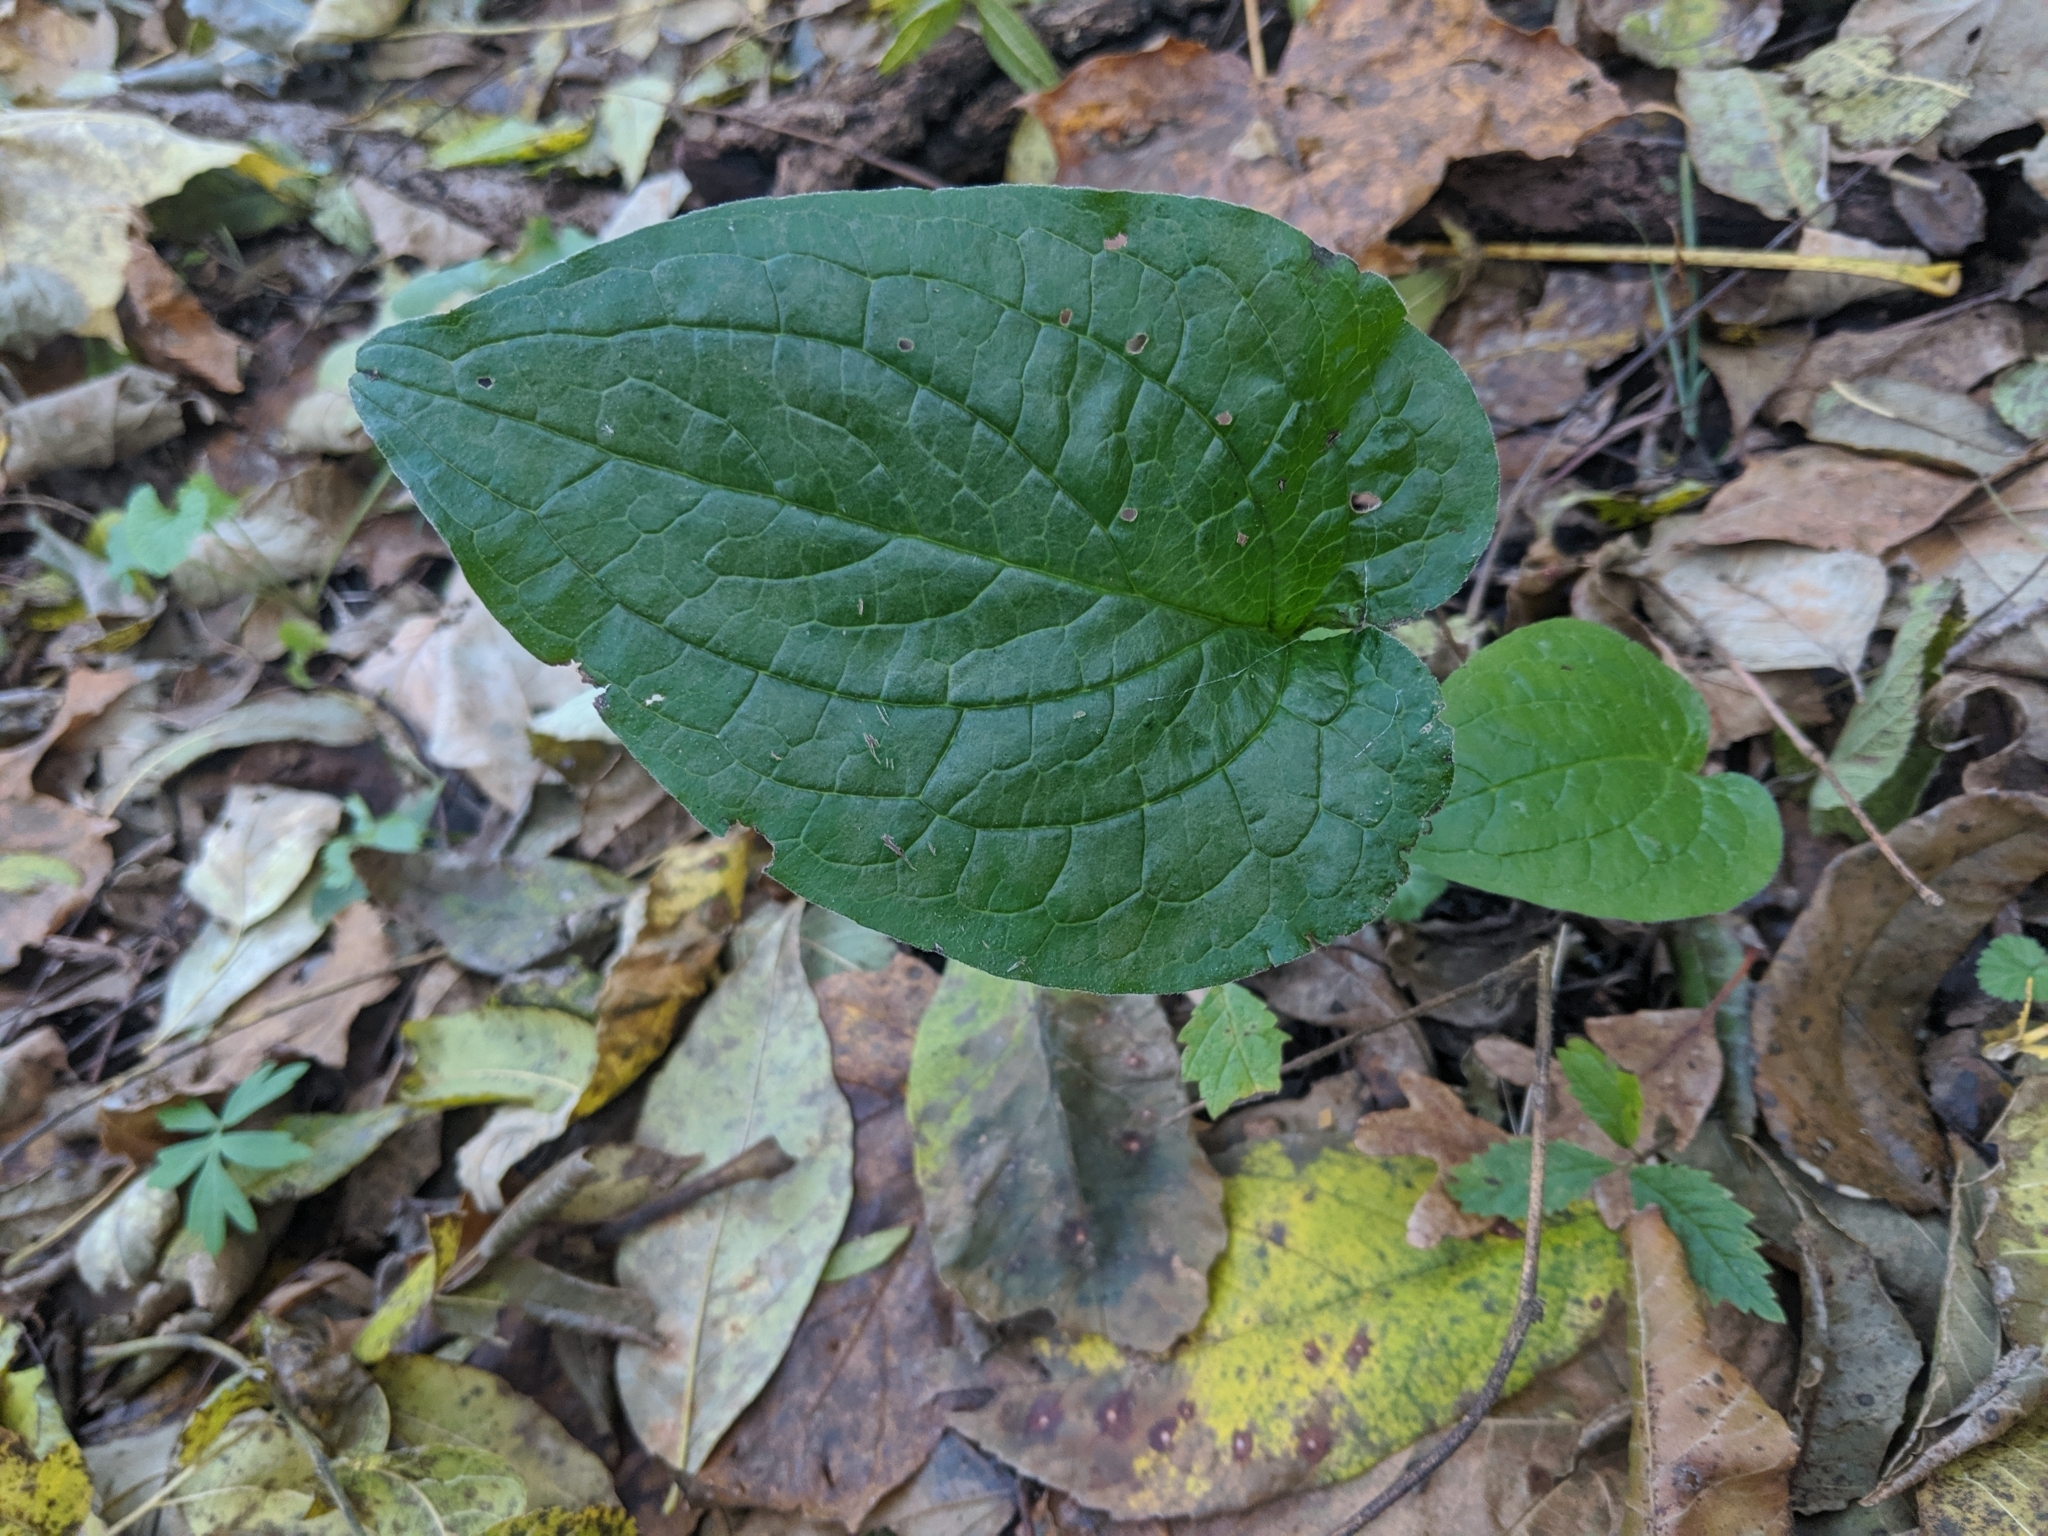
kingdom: Plantae
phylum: Tracheophyta
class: Magnoliopsida
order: Boraginales
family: Boraginaceae
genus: Hackelia
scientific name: Hackelia virginiana
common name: Beggar's-lice
